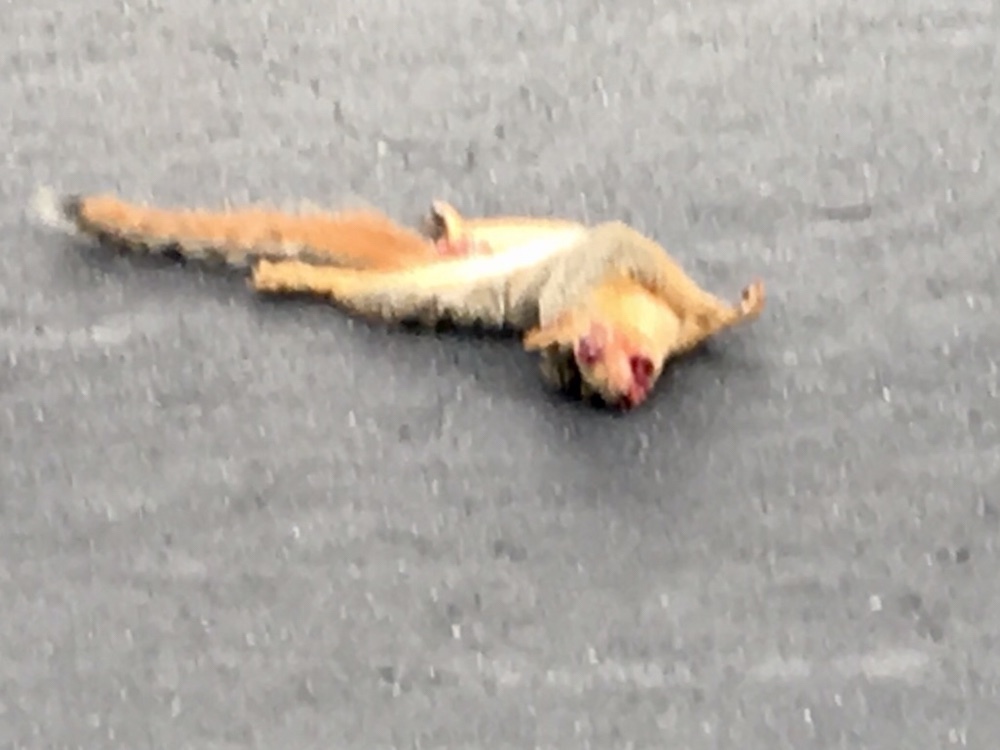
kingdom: Animalia
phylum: Chordata
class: Mammalia
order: Rodentia
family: Sciuridae
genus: Sciurus
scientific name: Sciurus niger
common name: Fox squirrel
